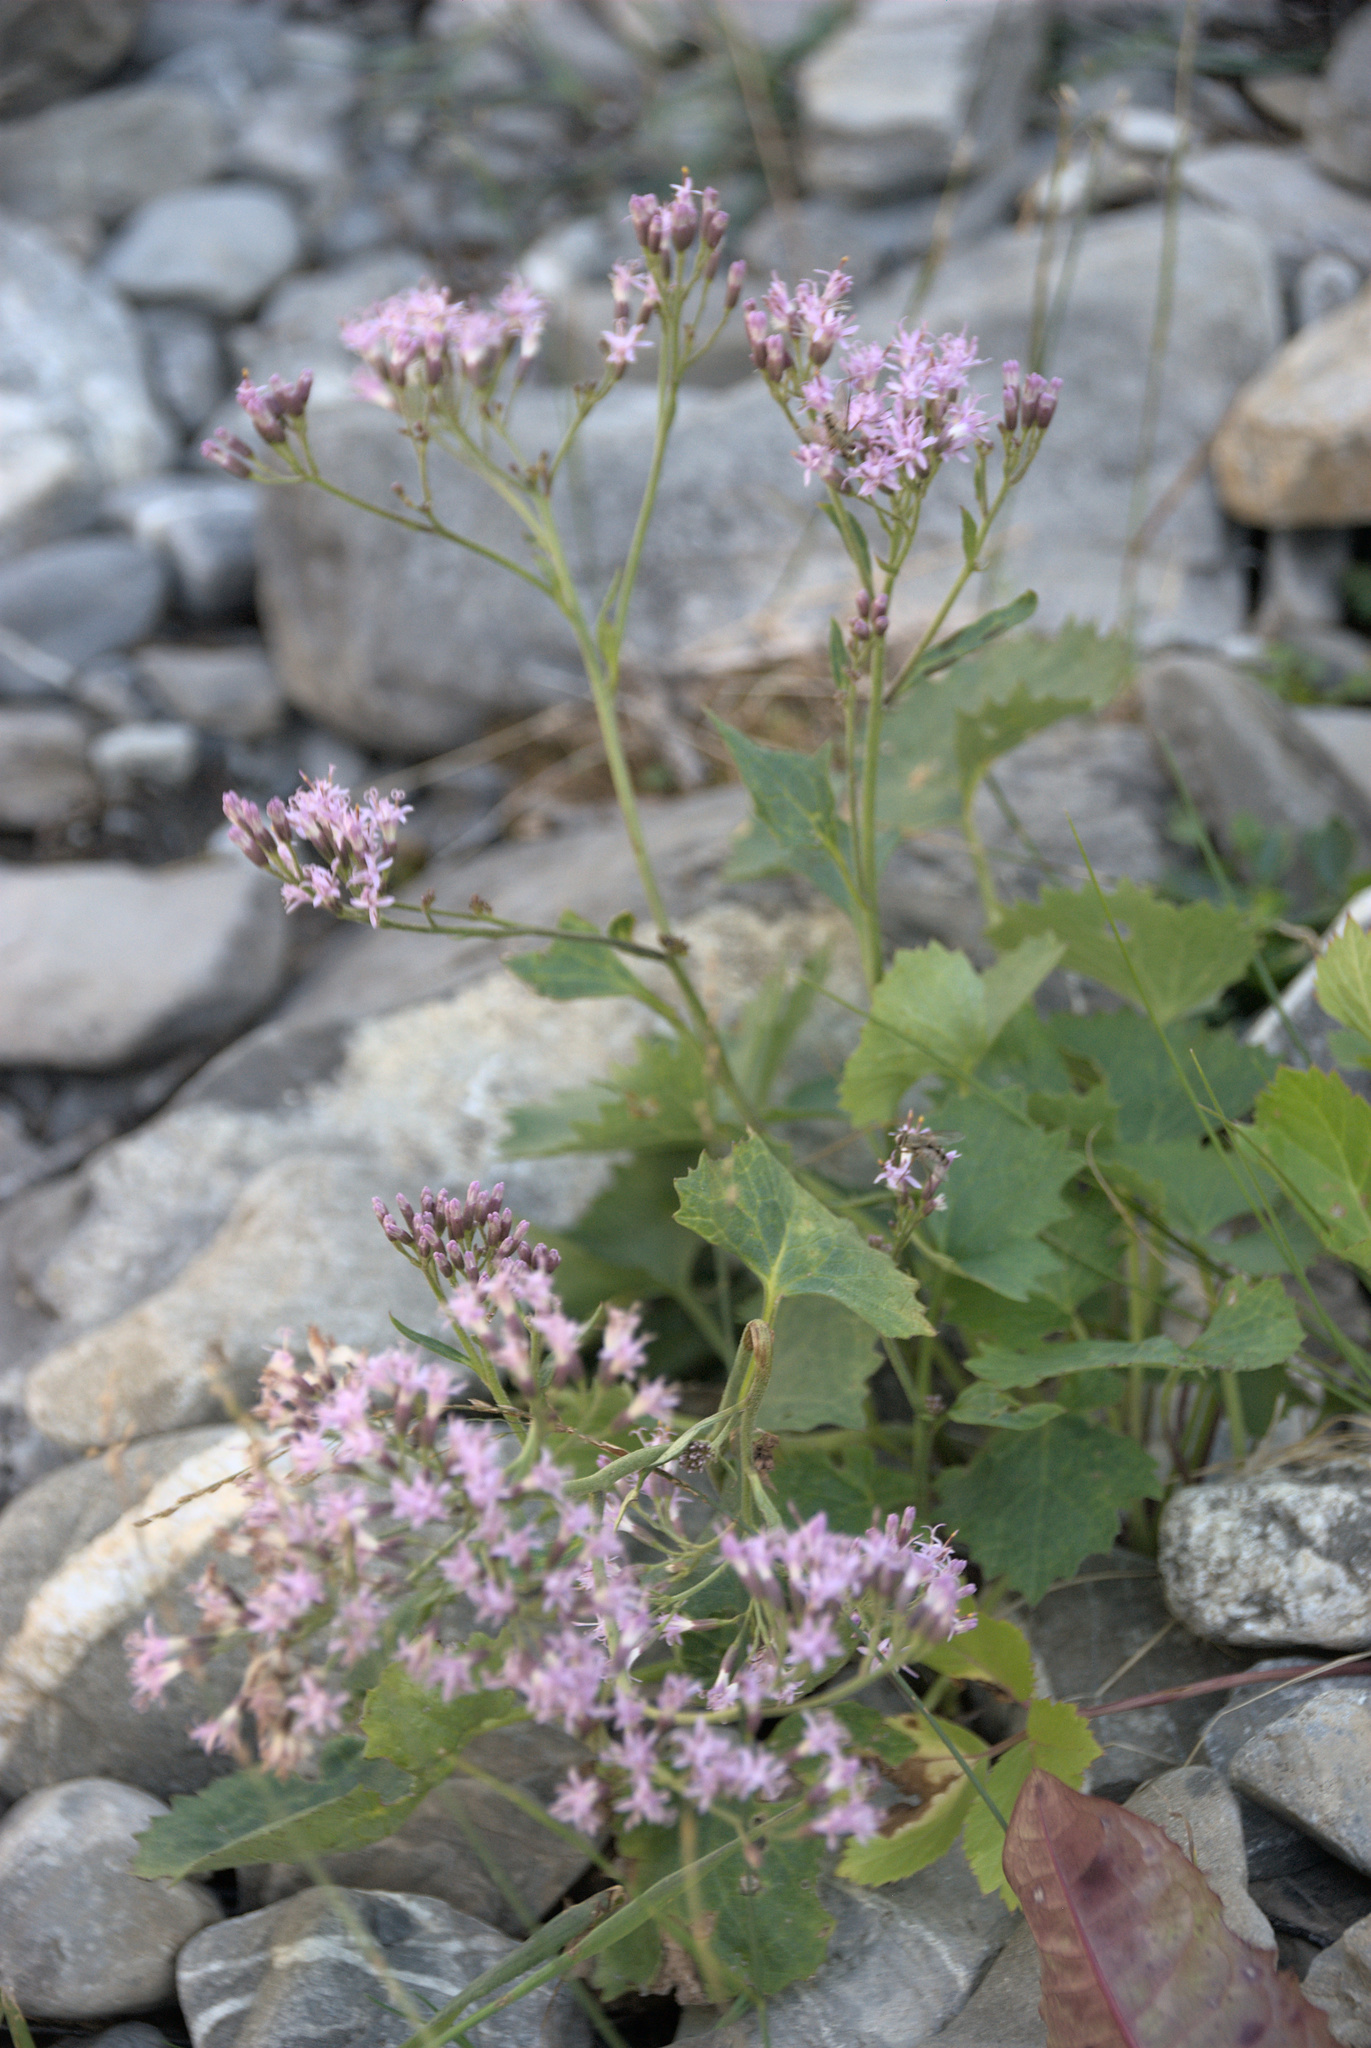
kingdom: Plantae
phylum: Tracheophyta
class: Magnoliopsida
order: Asterales
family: Asteraceae
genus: Adenostyles
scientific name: Adenostyles alliariae
